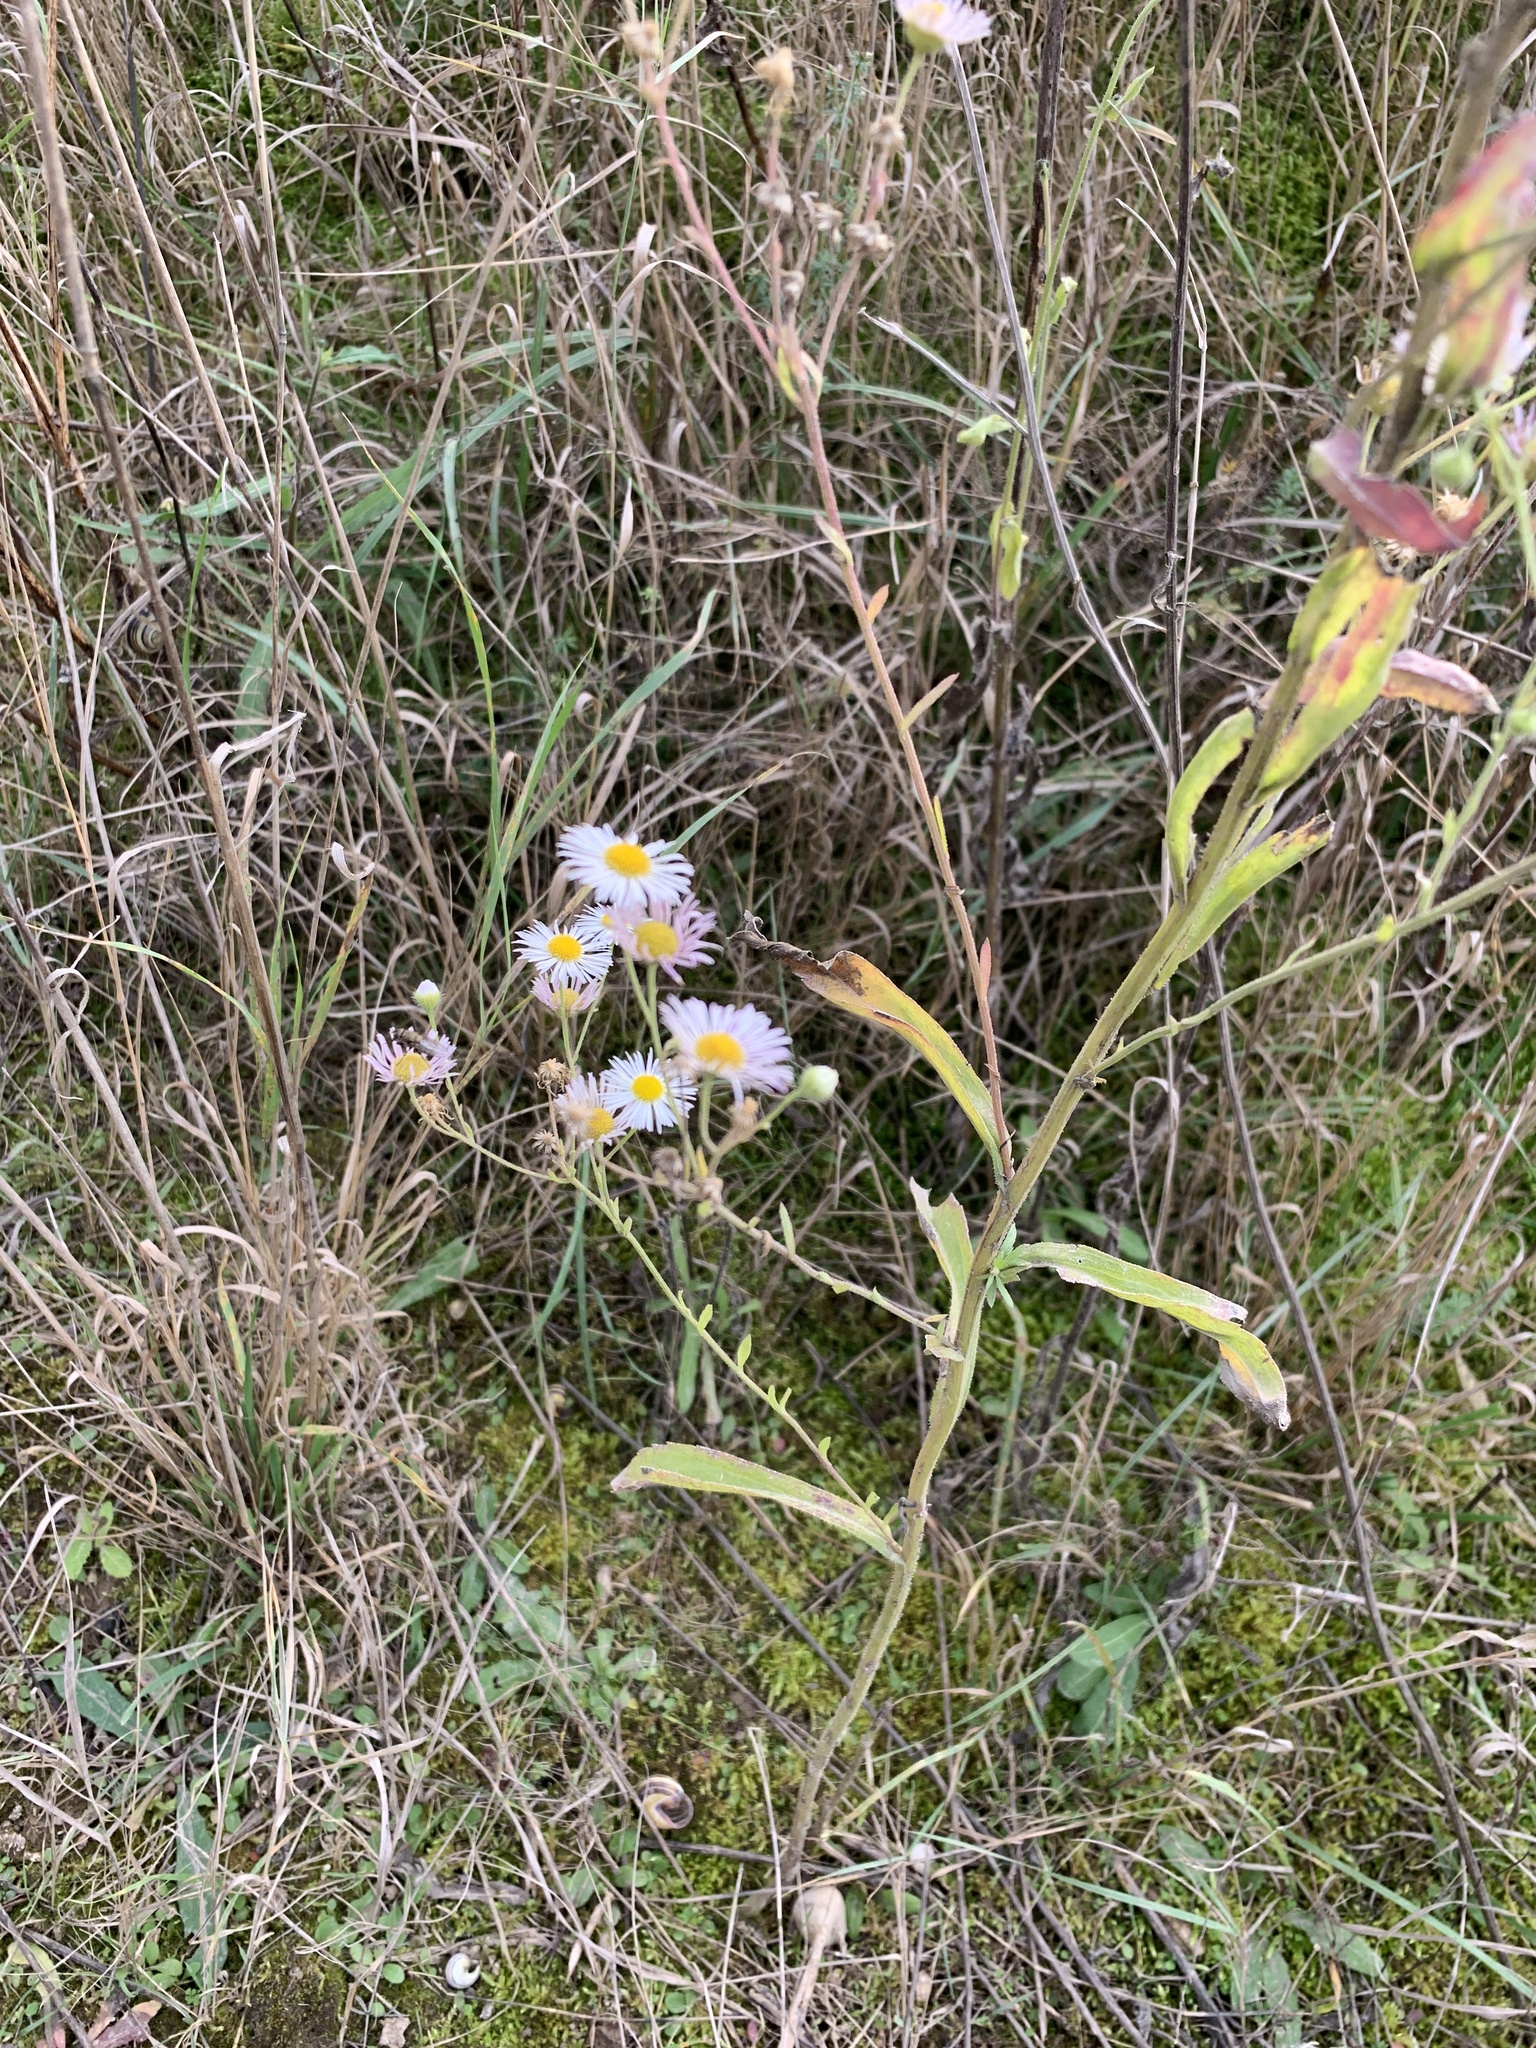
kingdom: Plantae
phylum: Tracheophyta
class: Magnoliopsida
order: Asterales
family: Asteraceae
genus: Erigeron
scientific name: Erigeron annuus
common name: Tall fleabane
